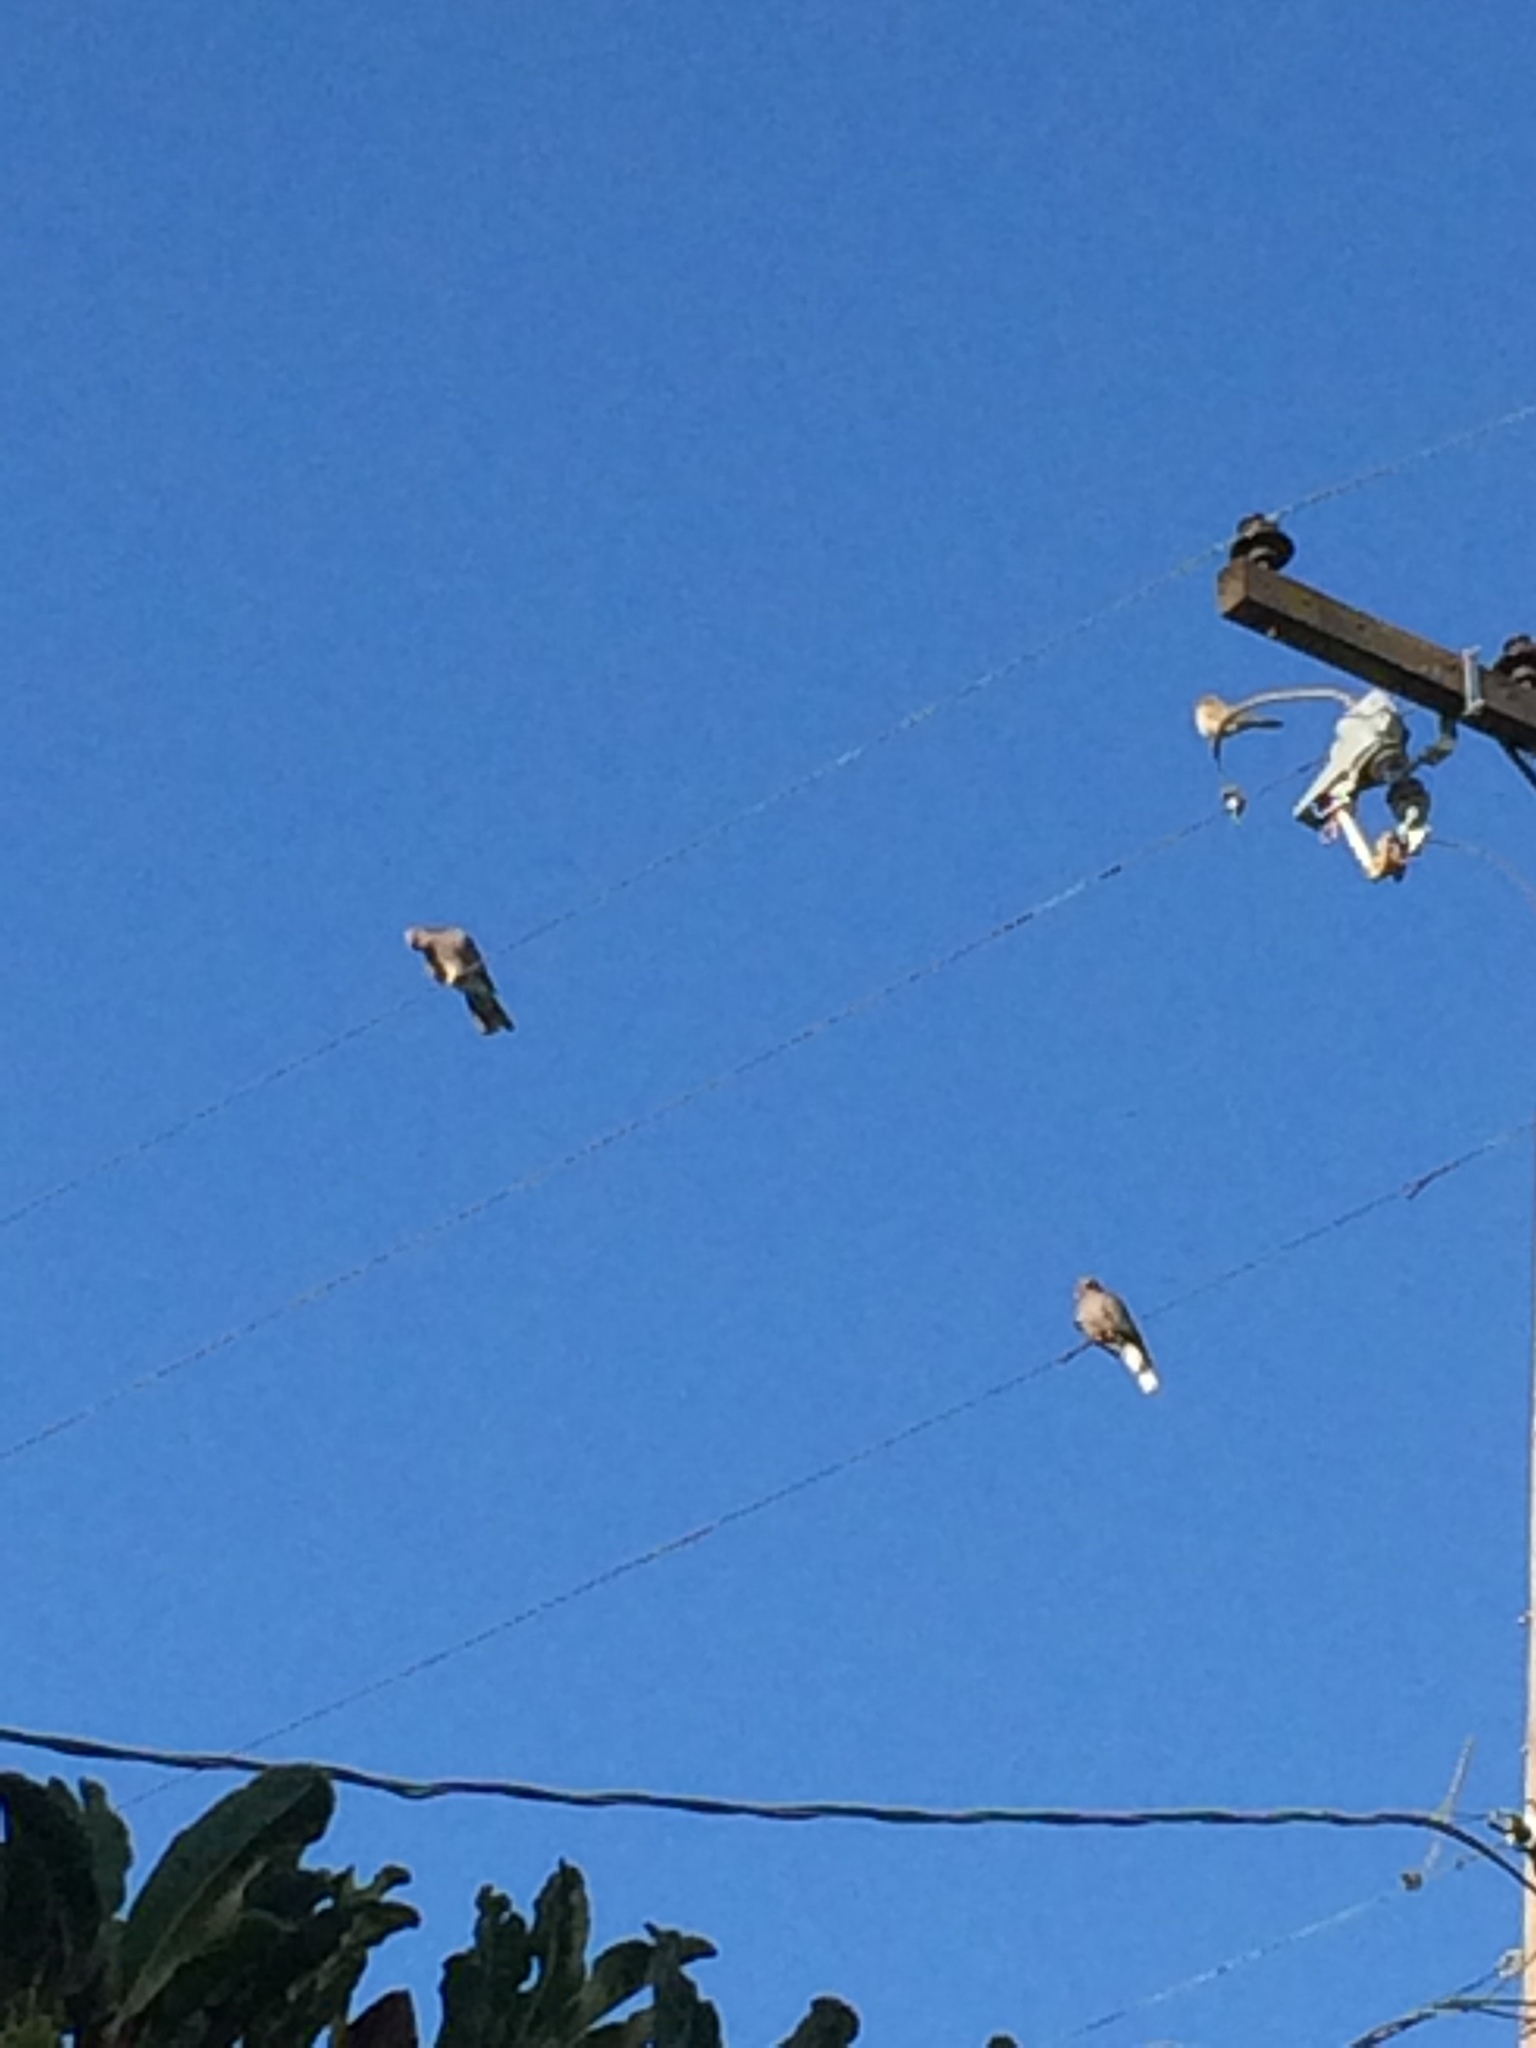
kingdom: Animalia
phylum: Chordata
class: Aves
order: Columbiformes
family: Columbidae
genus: Patagioenas
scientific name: Patagioenas fasciata
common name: Band-tailed pigeon
